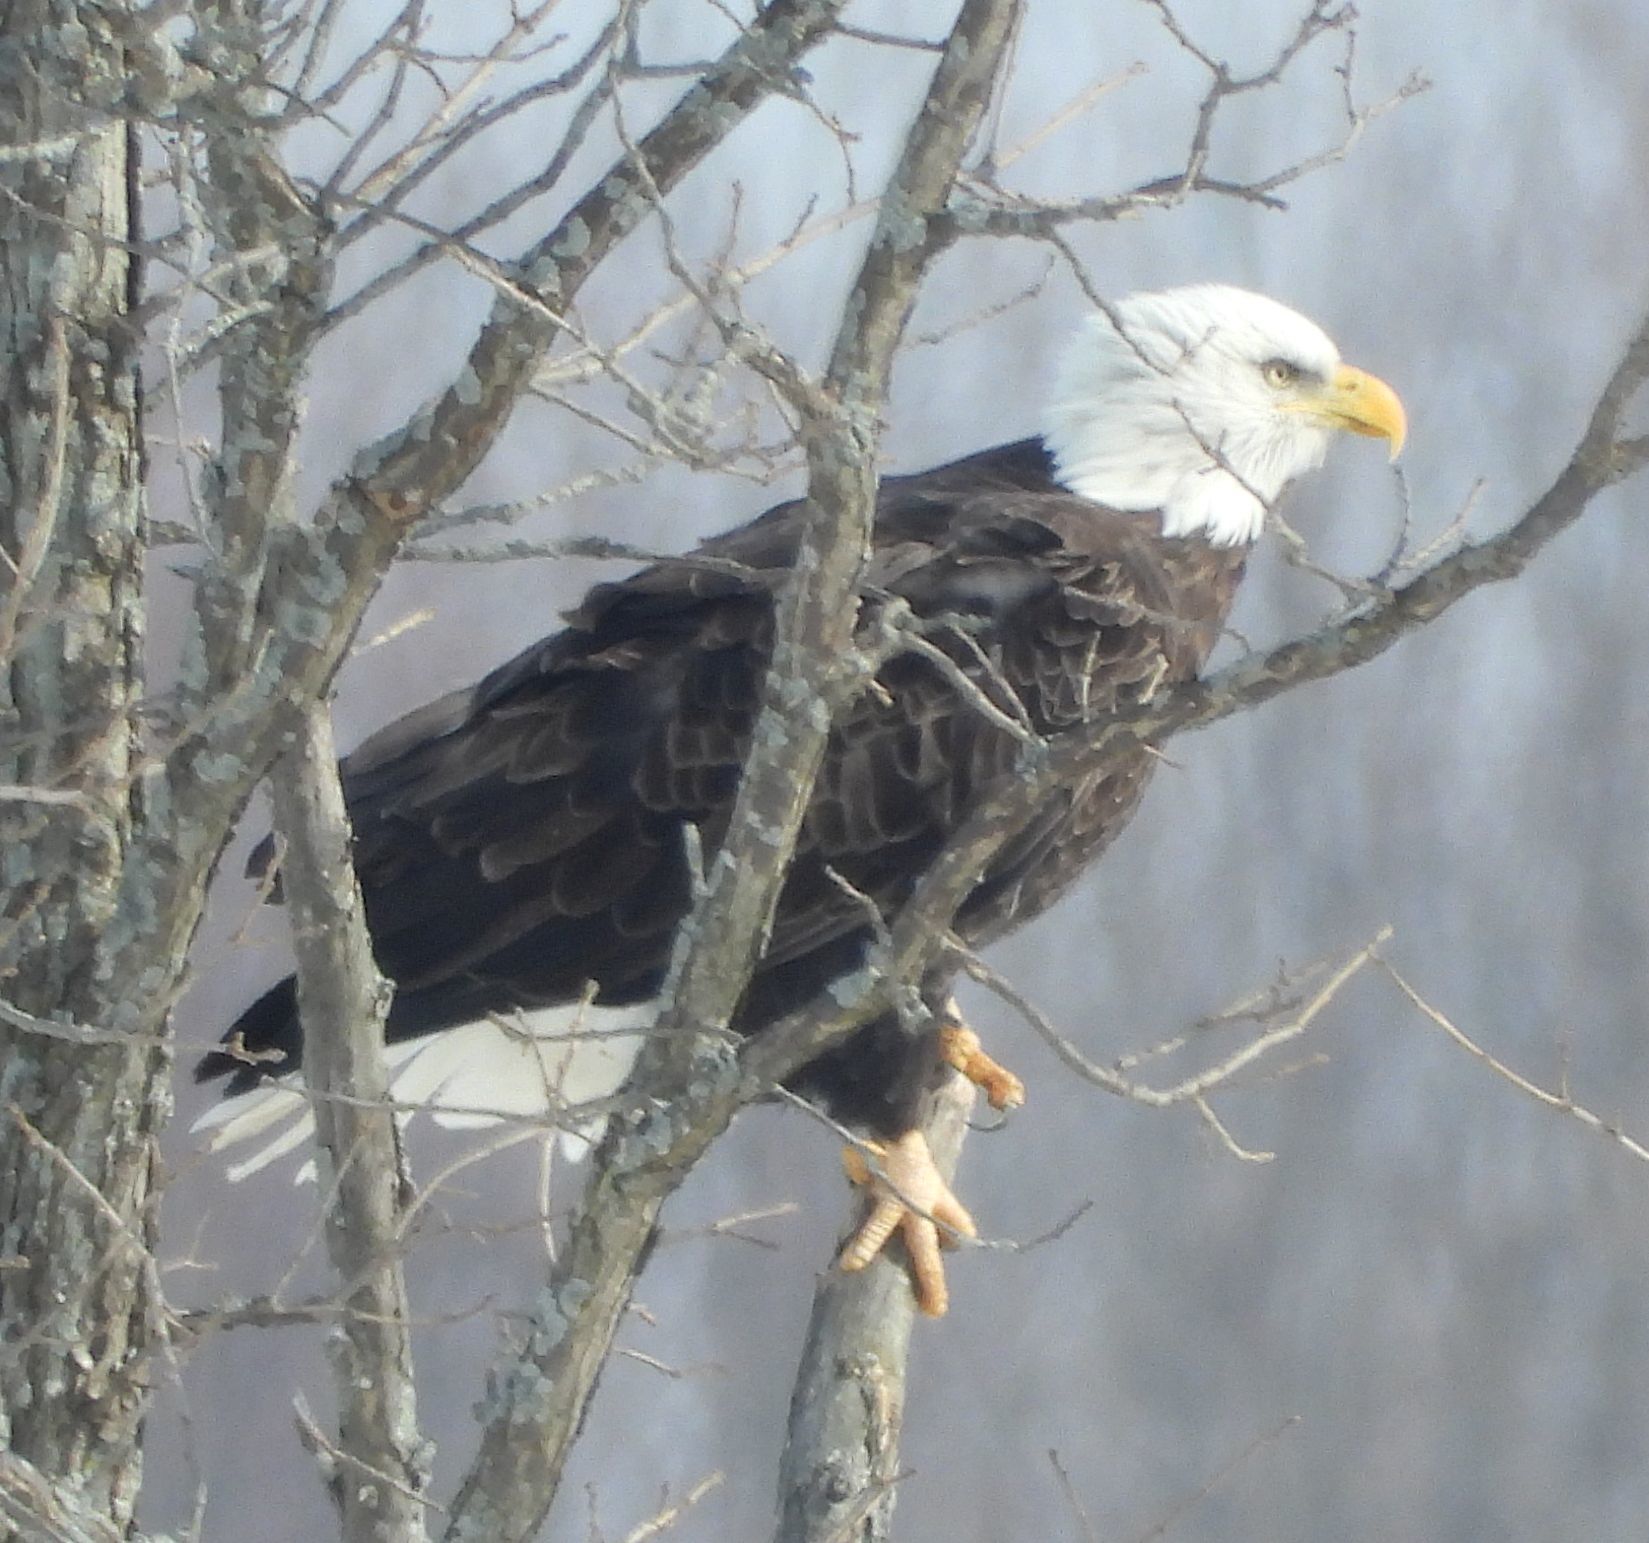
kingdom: Animalia
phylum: Chordata
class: Aves
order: Accipitriformes
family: Accipitridae
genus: Haliaeetus
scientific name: Haliaeetus leucocephalus
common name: Bald eagle
